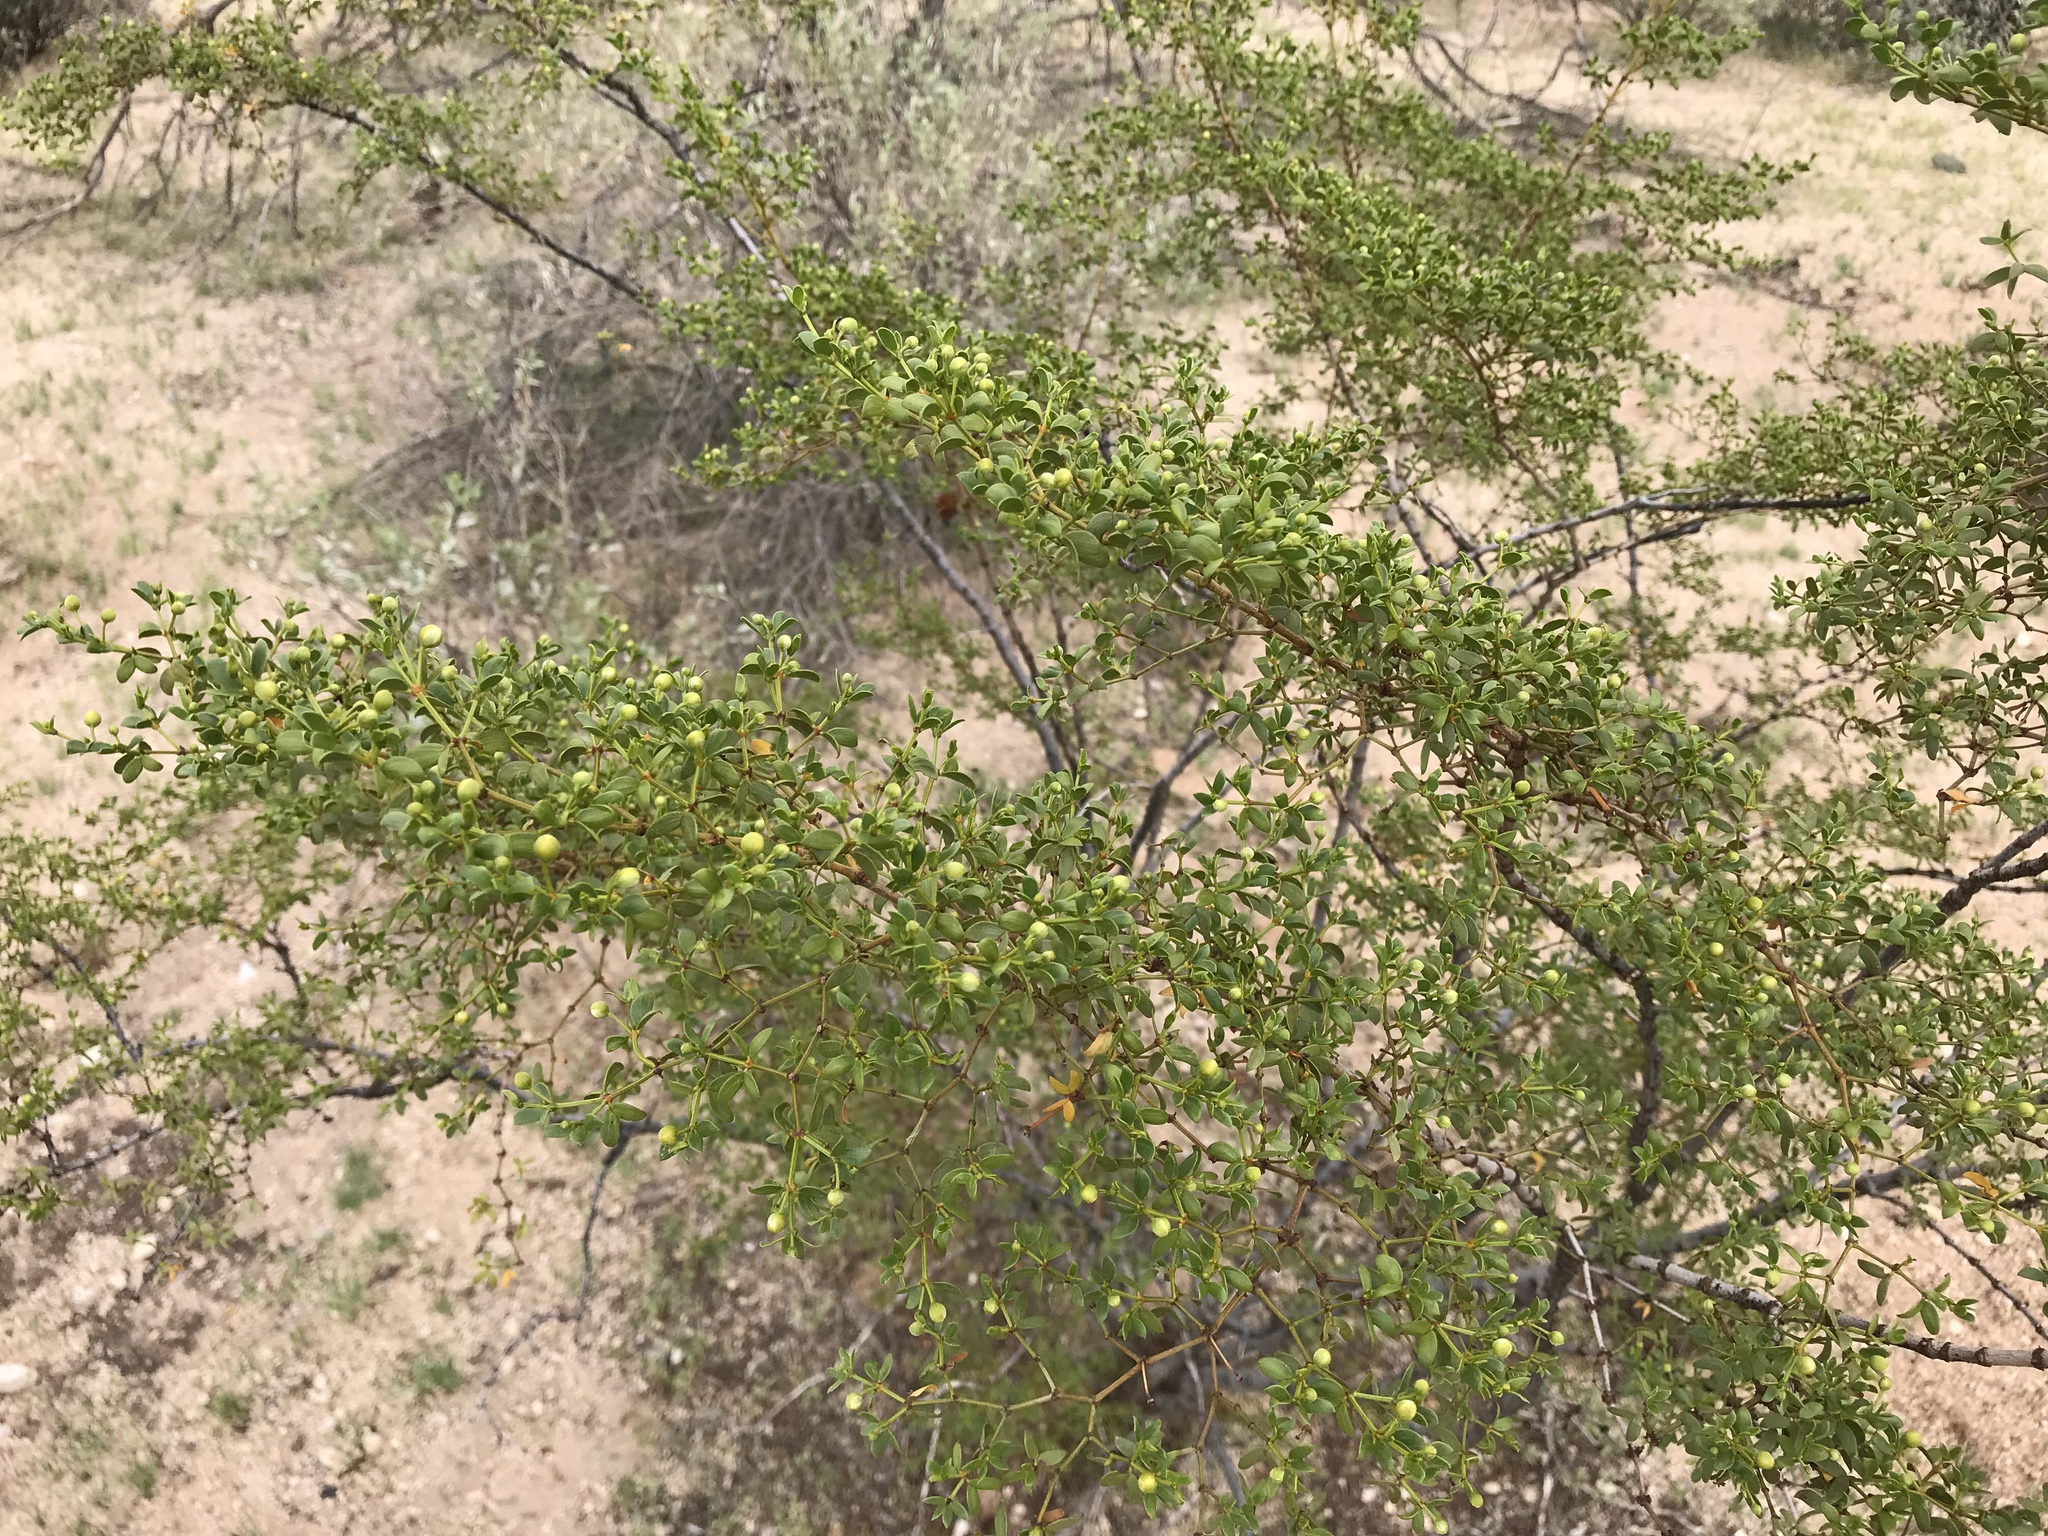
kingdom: Plantae
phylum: Tracheophyta
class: Magnoliopsida
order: Zygophyllales
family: Zygophyllaceae
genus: Larrea
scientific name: Larrea tridentata
